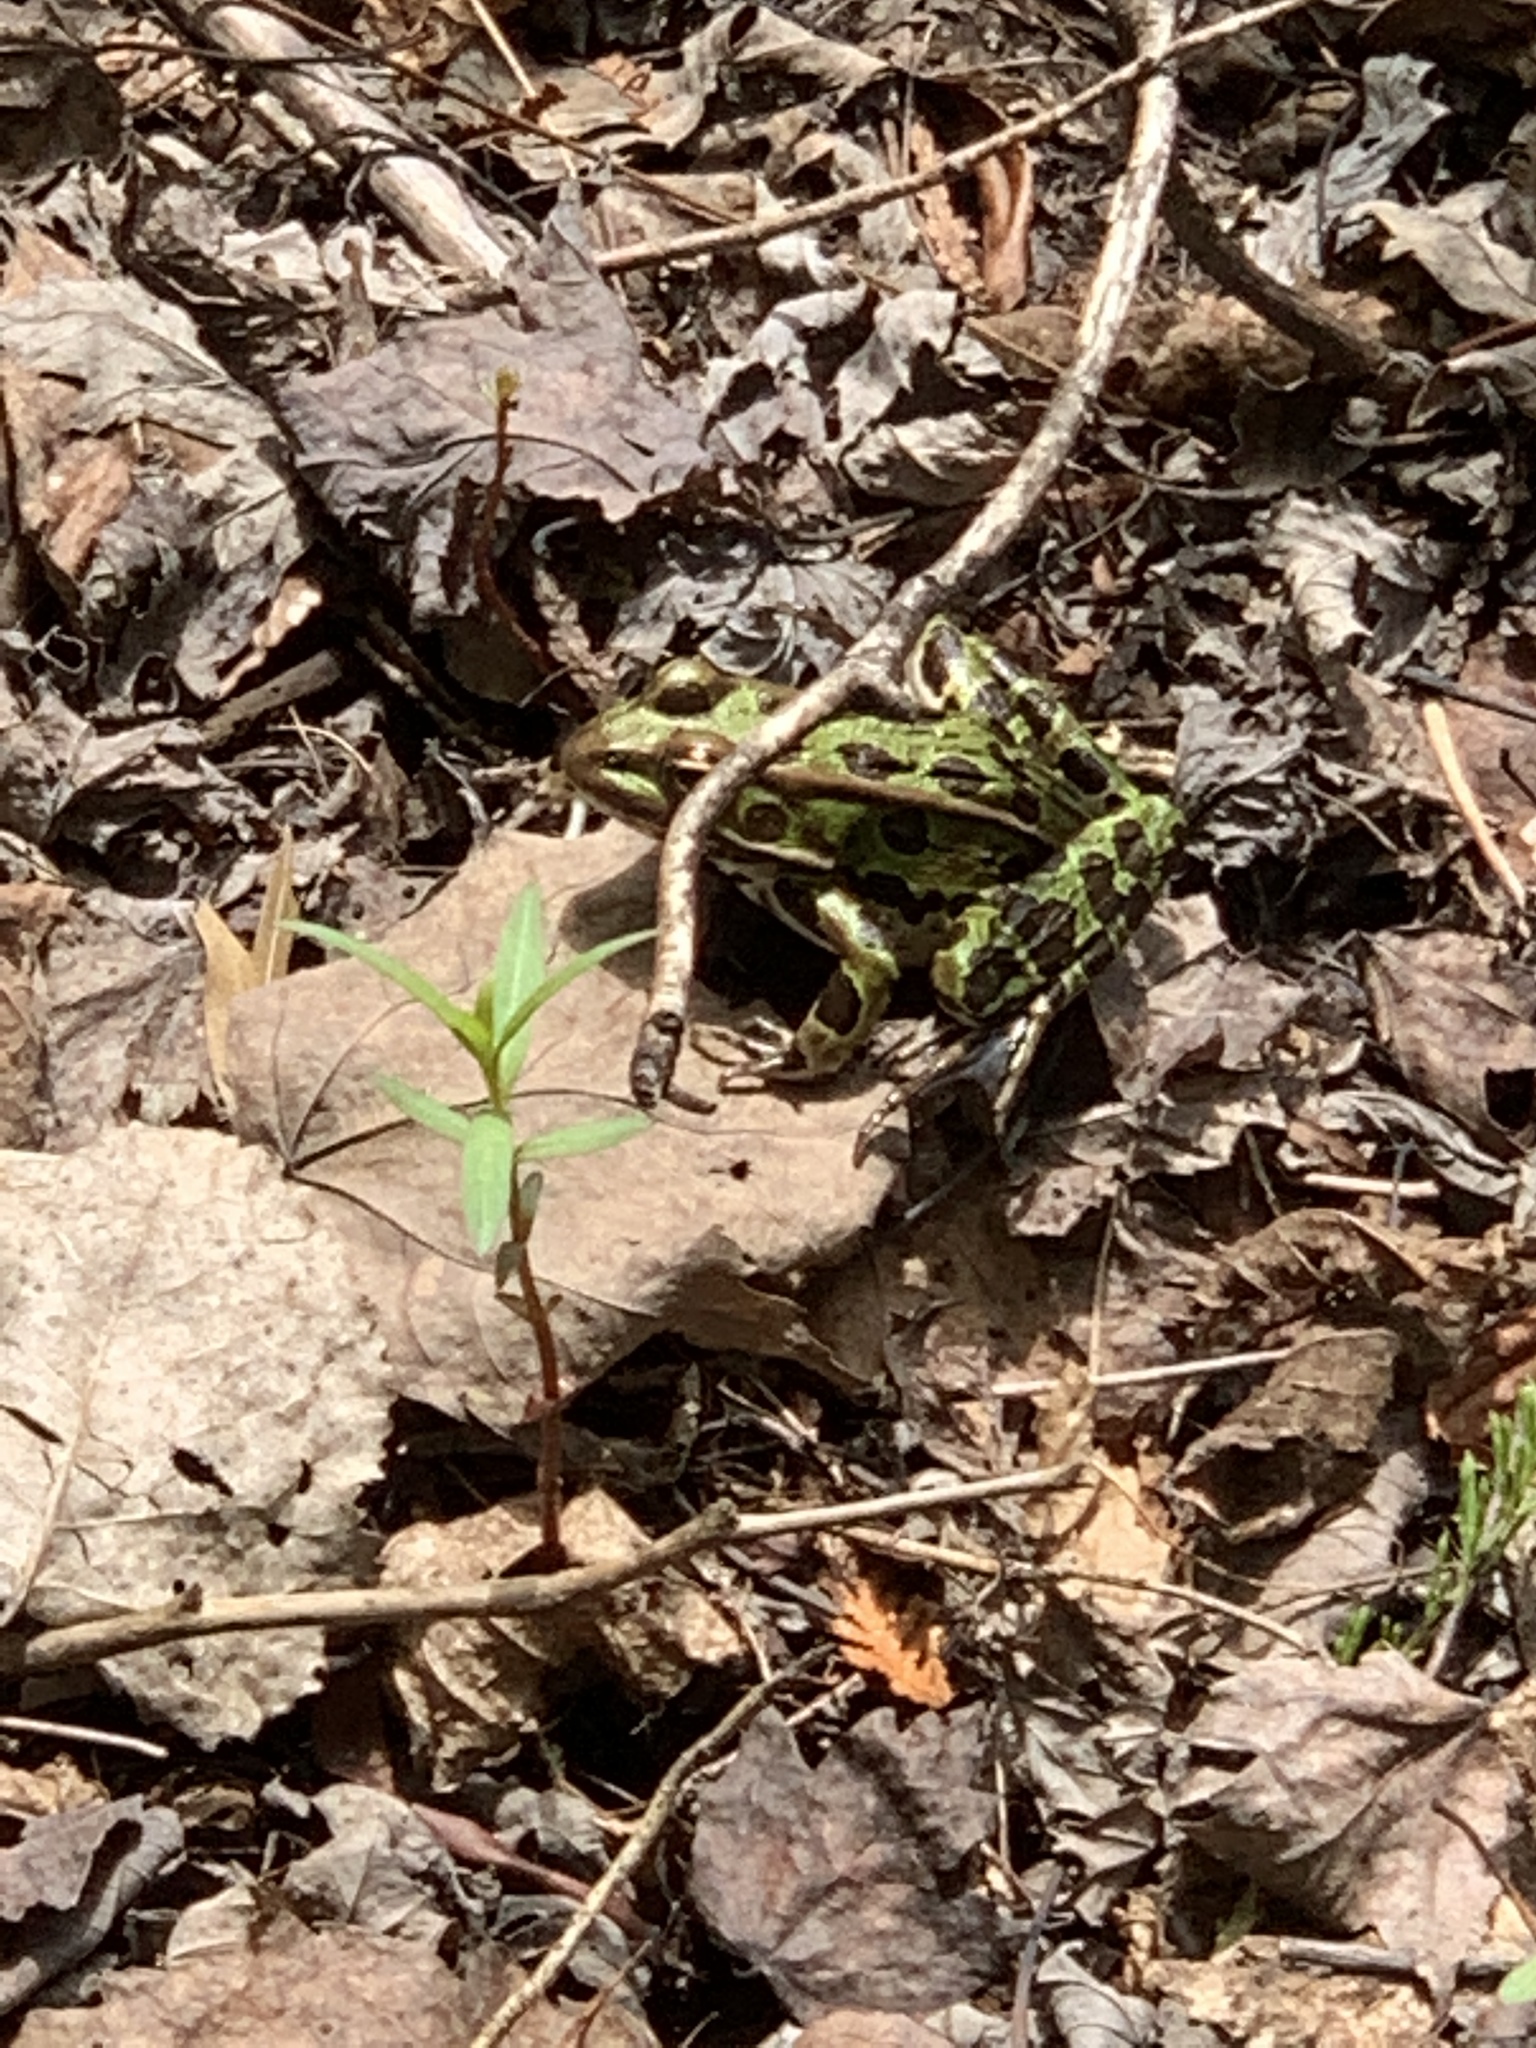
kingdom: Animalia
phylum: Chordata
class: Amphibia
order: Anura
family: Ranidae
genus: Lithobates
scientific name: Lithobates pipiens
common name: Northern leopard frog
